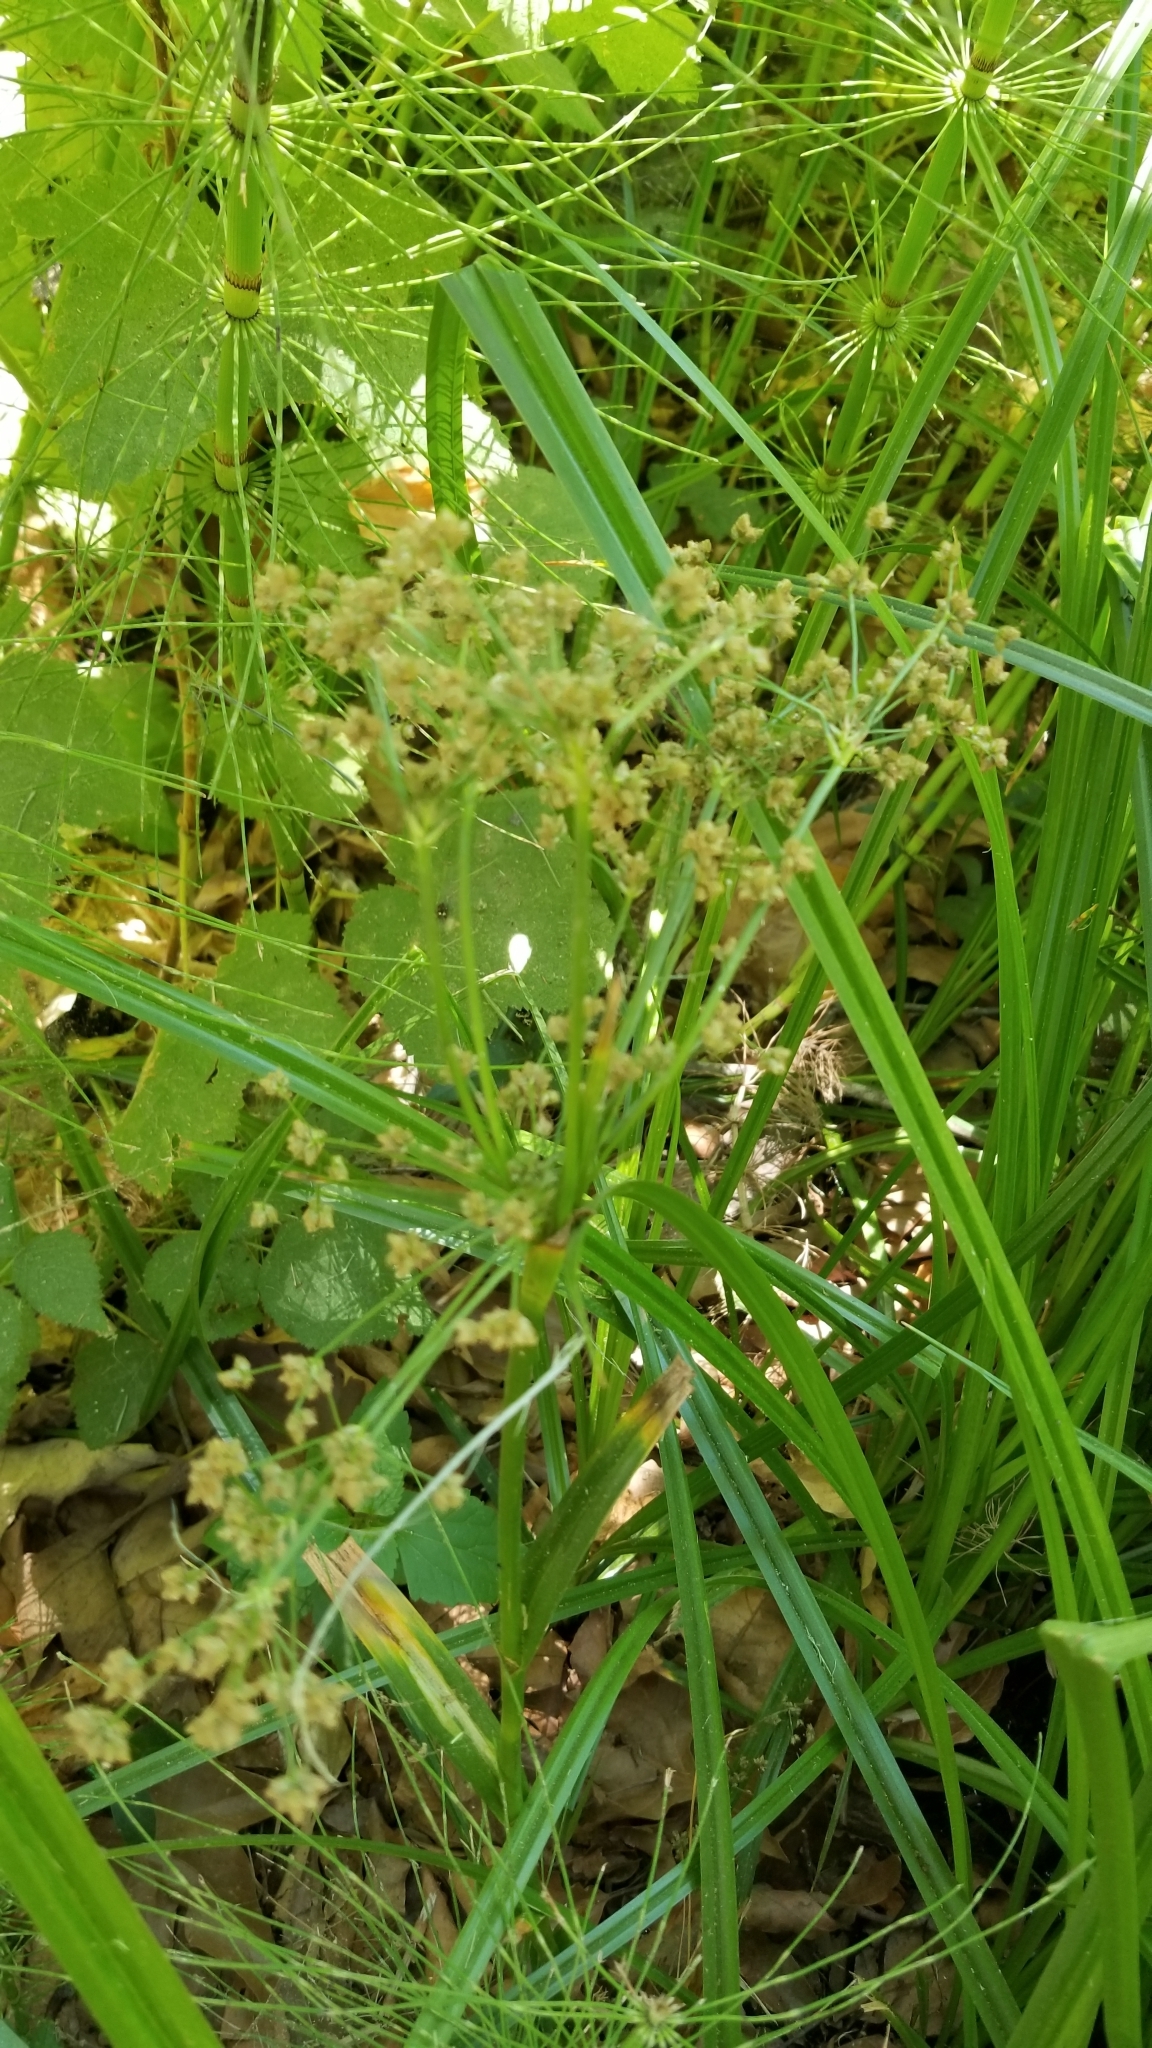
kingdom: Plantae
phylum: Tracheophyta
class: Liliopsida
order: Poales
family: Cyperaceae
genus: Scirpus
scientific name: Scirpus microcarpus
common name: Panicled bulrush
